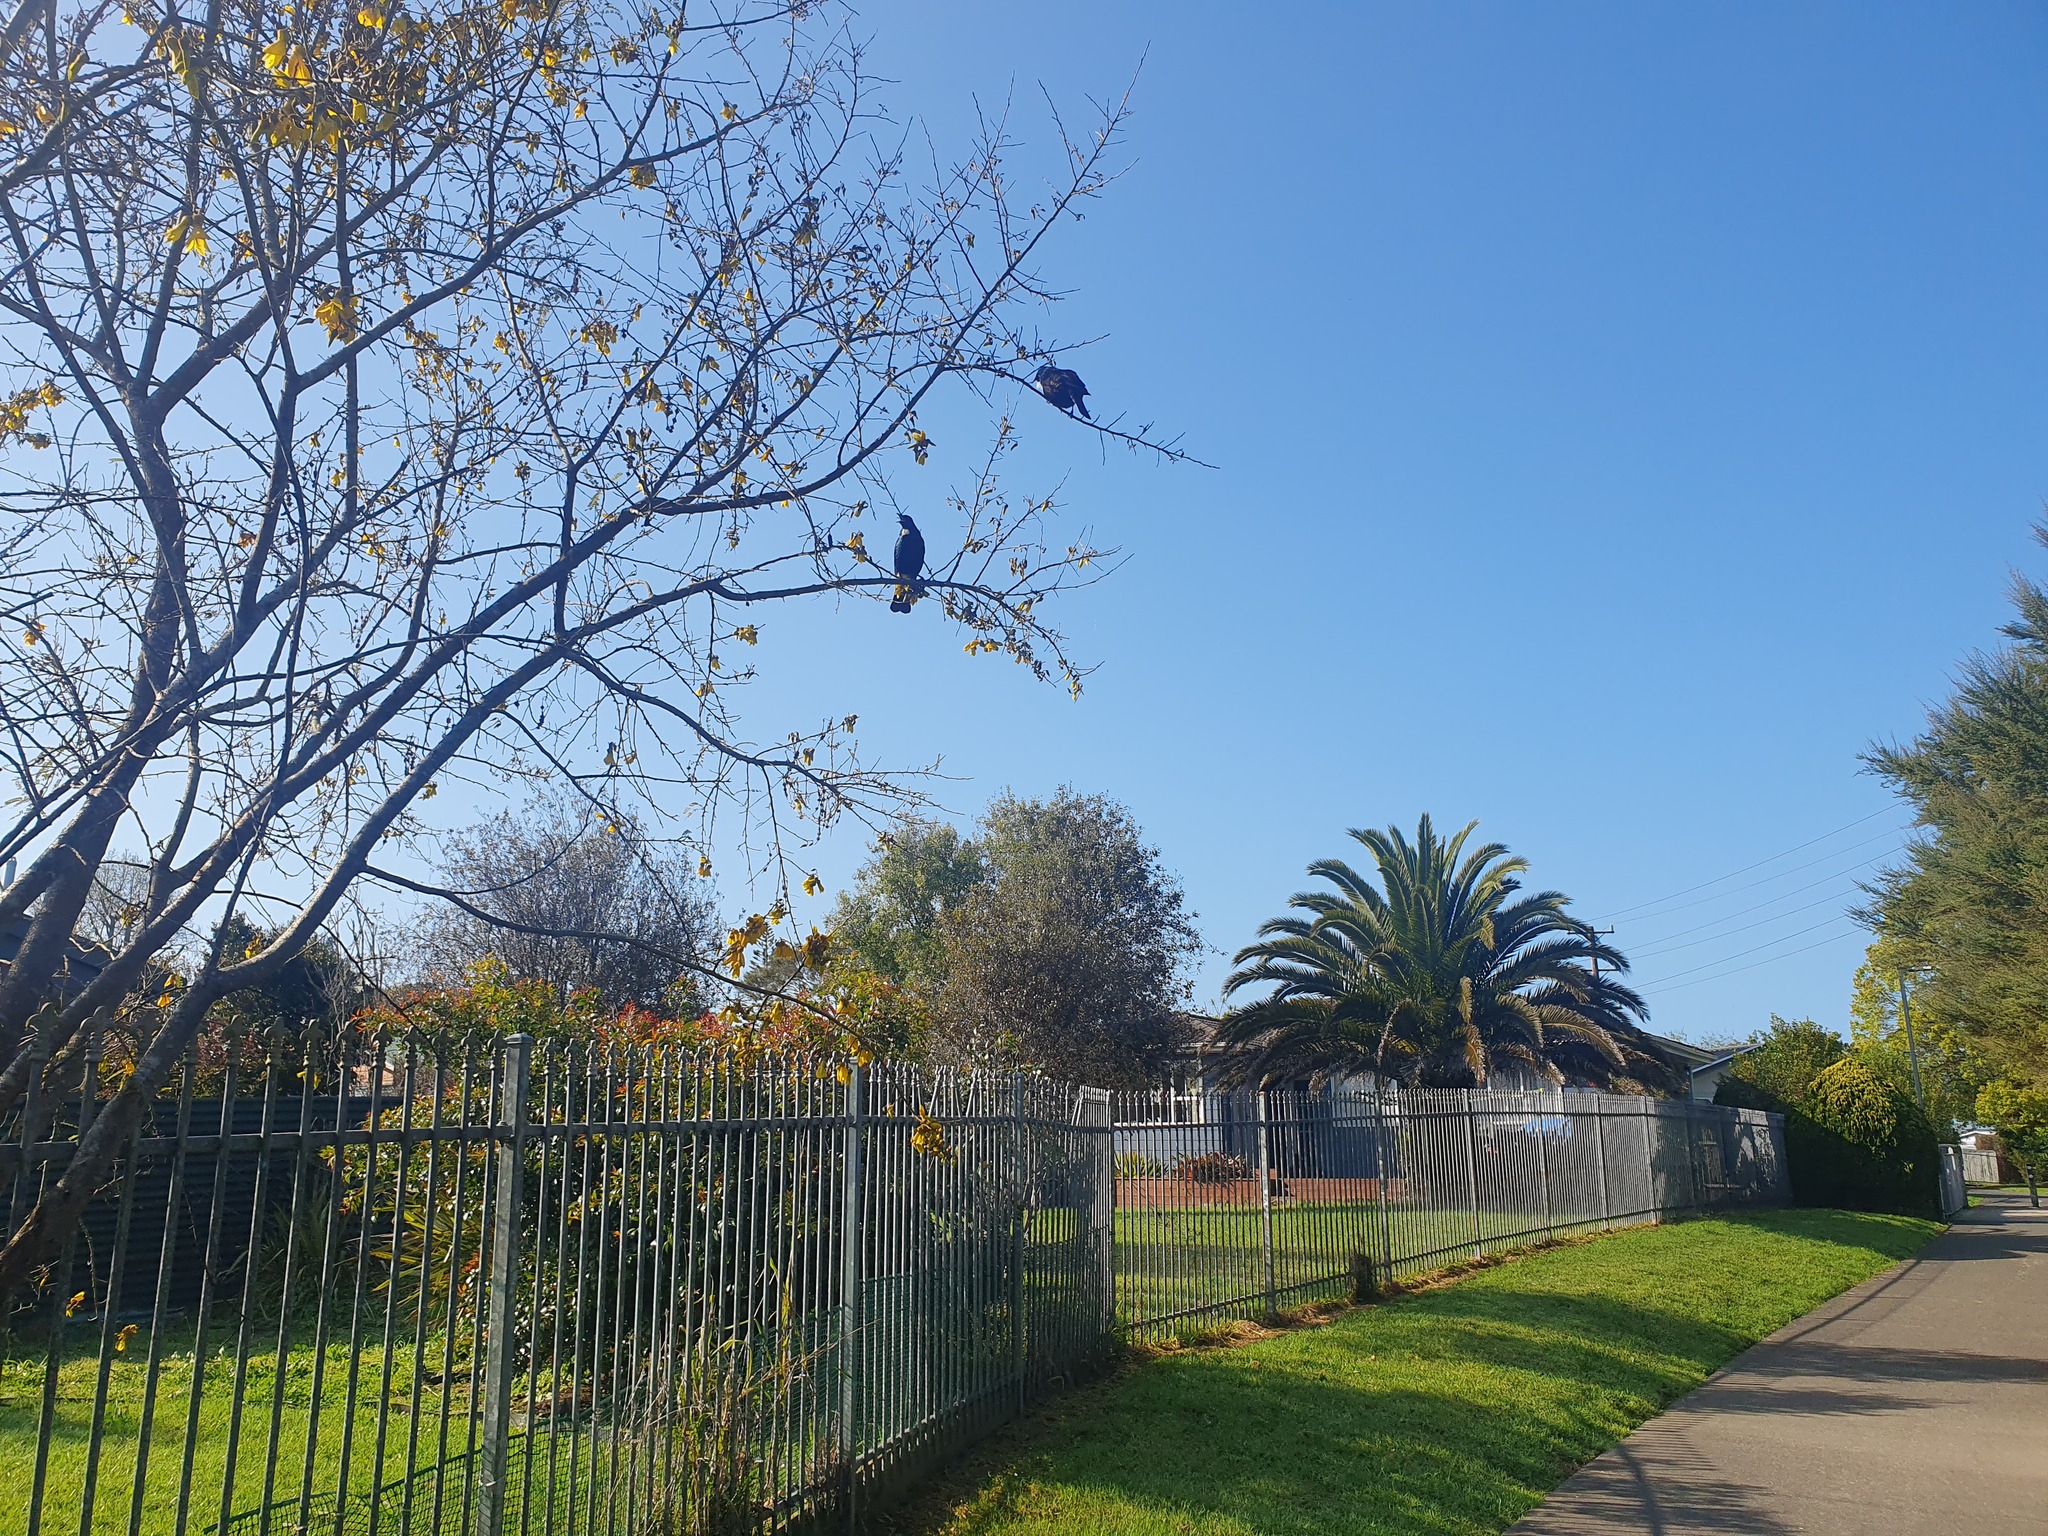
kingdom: Animalia
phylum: Chordata
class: Aves
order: Passeriformes
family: Meliphagidae
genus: Prosthemadera
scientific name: Prosthemadera novaeseelandiae
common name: Tui
